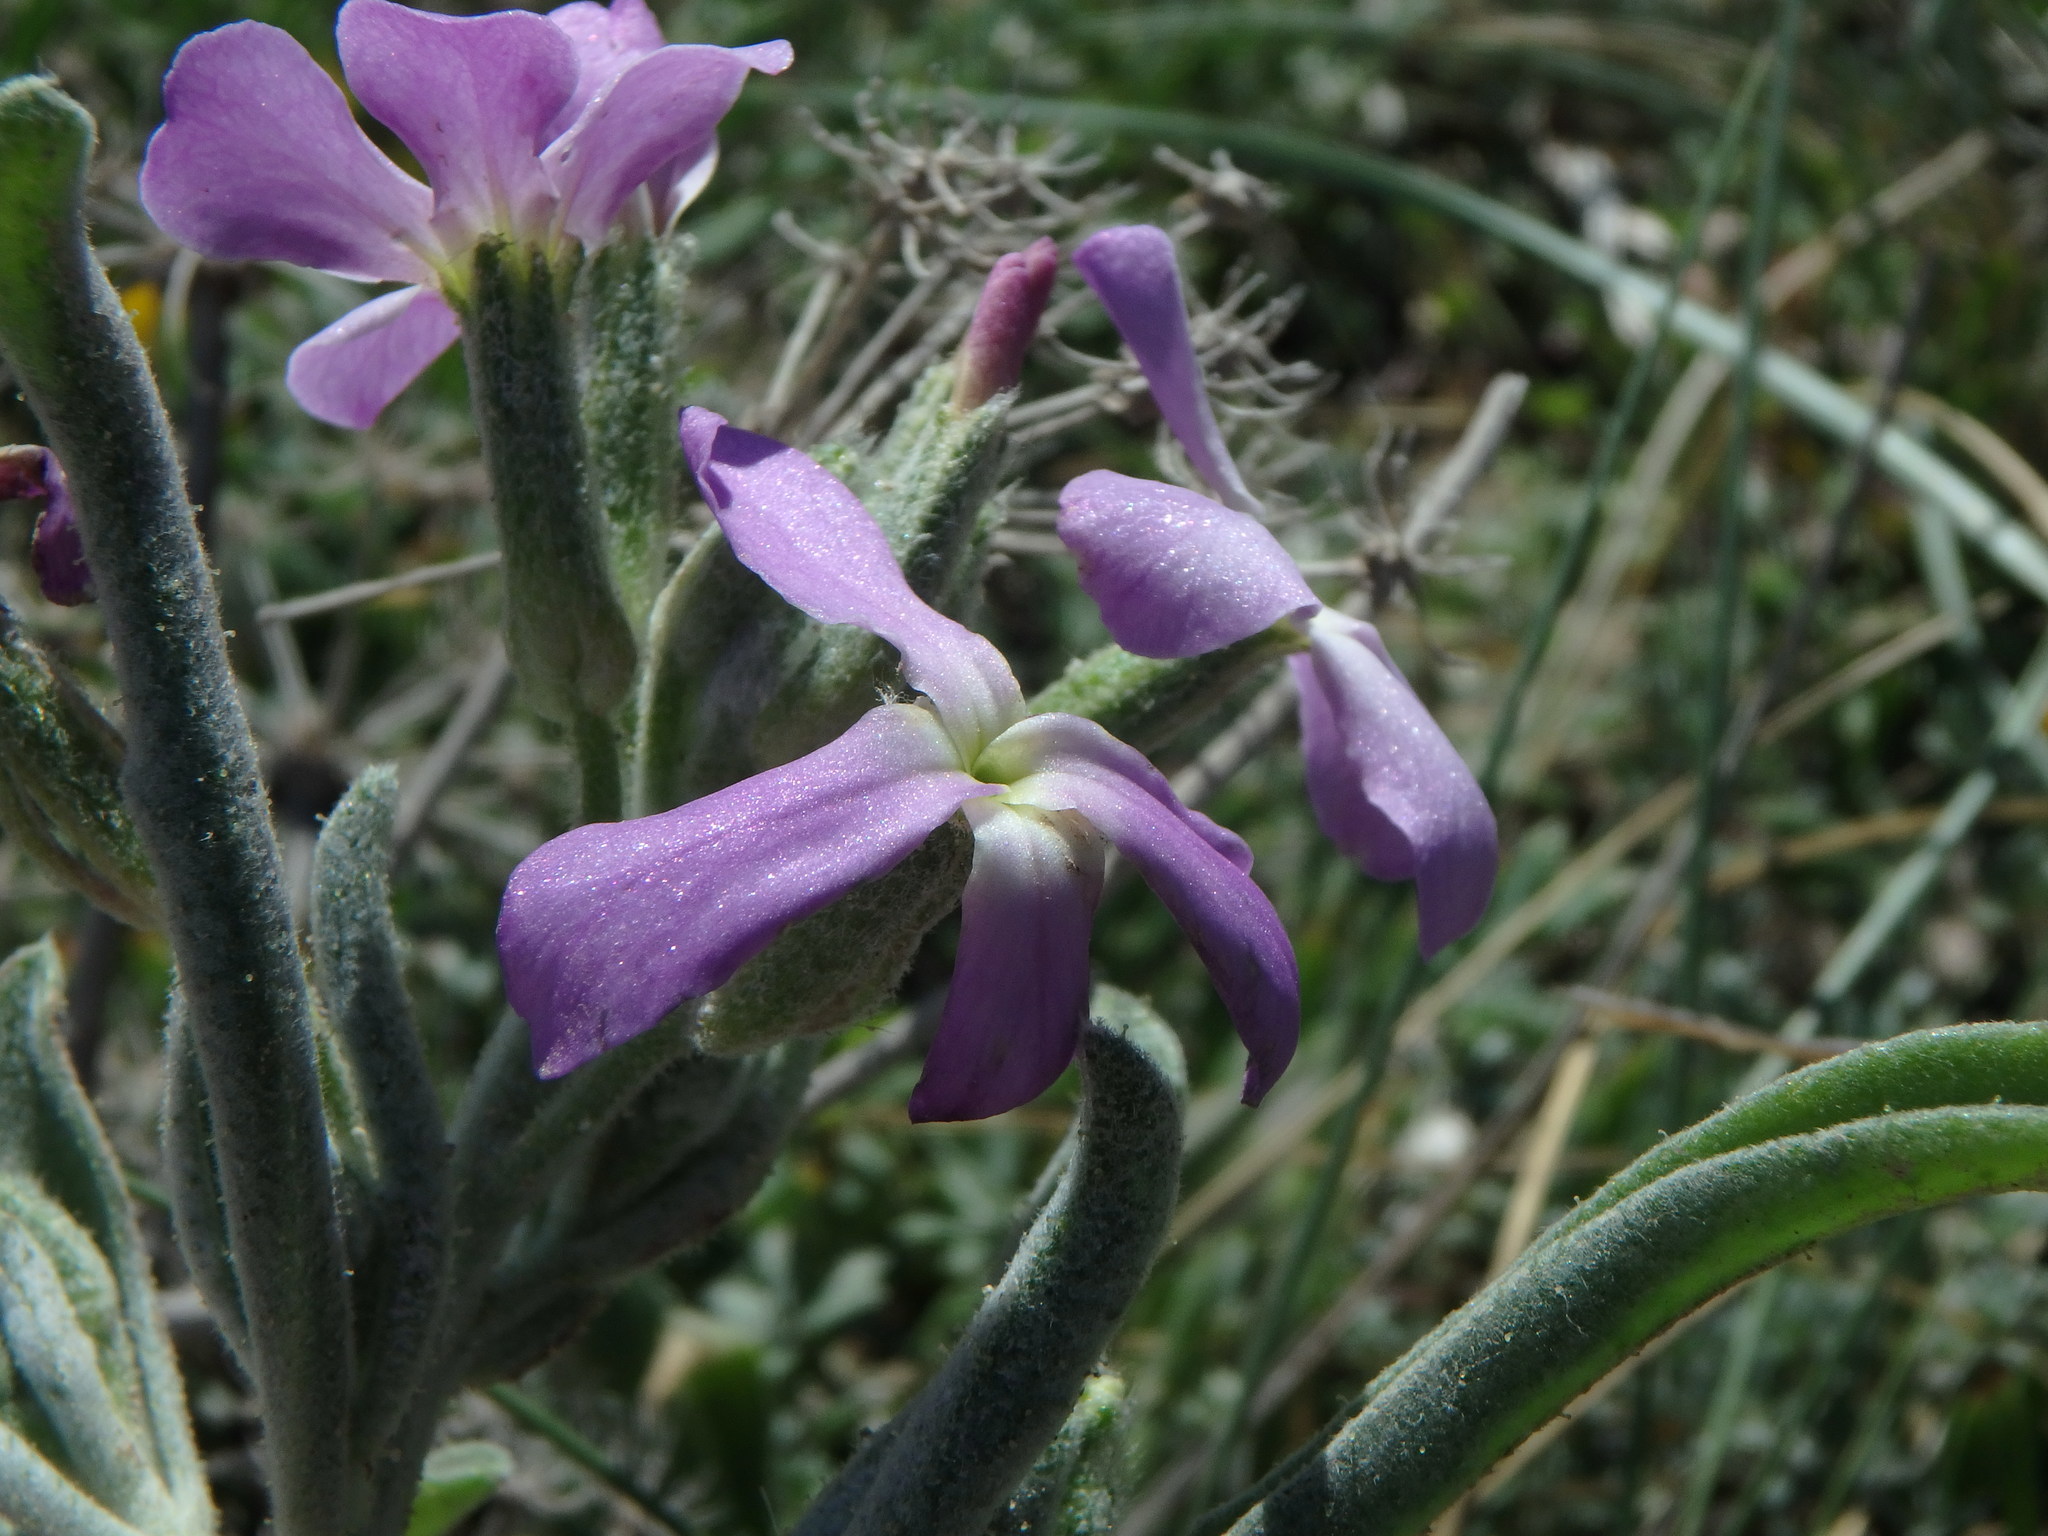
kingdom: Plantae
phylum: Tracheophyta
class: Magnoliopsida
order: Brassicales
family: Brassicaceae
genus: Matthiola
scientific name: Matthiola sinuata
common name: Sea stock
